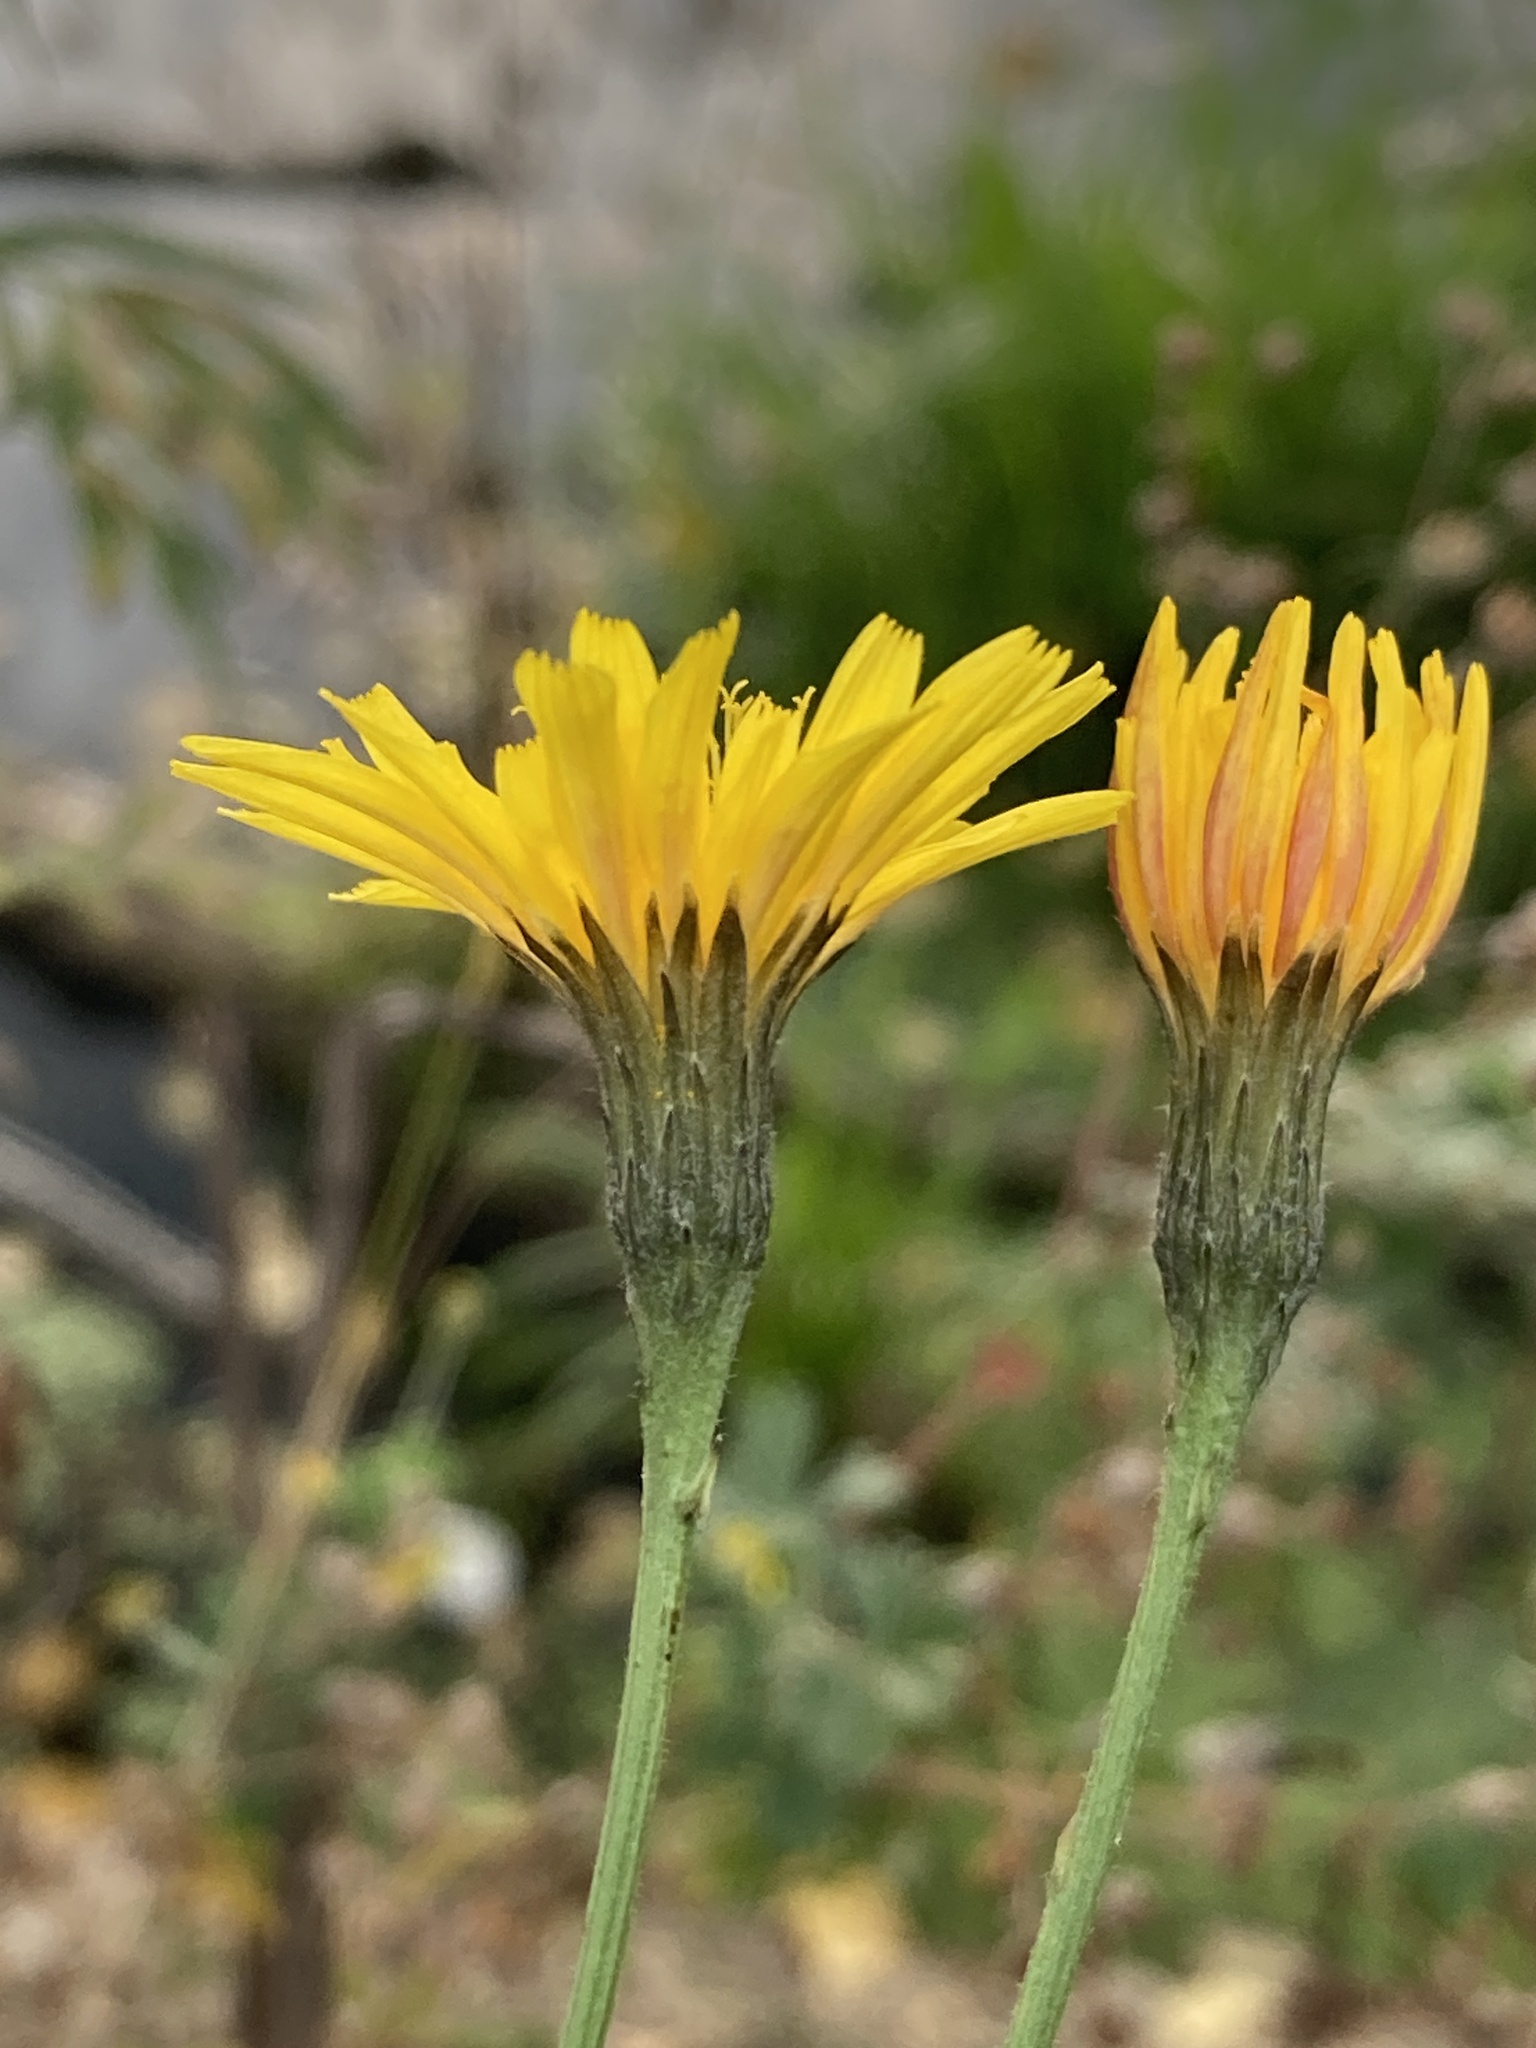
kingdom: Plantae
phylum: Tracheophyta
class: Magnoliopsida
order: Asterales
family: Asteraceae
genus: Scorzoneroides
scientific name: Scorzoneroides autumnalis
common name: Autumn hawkbit
